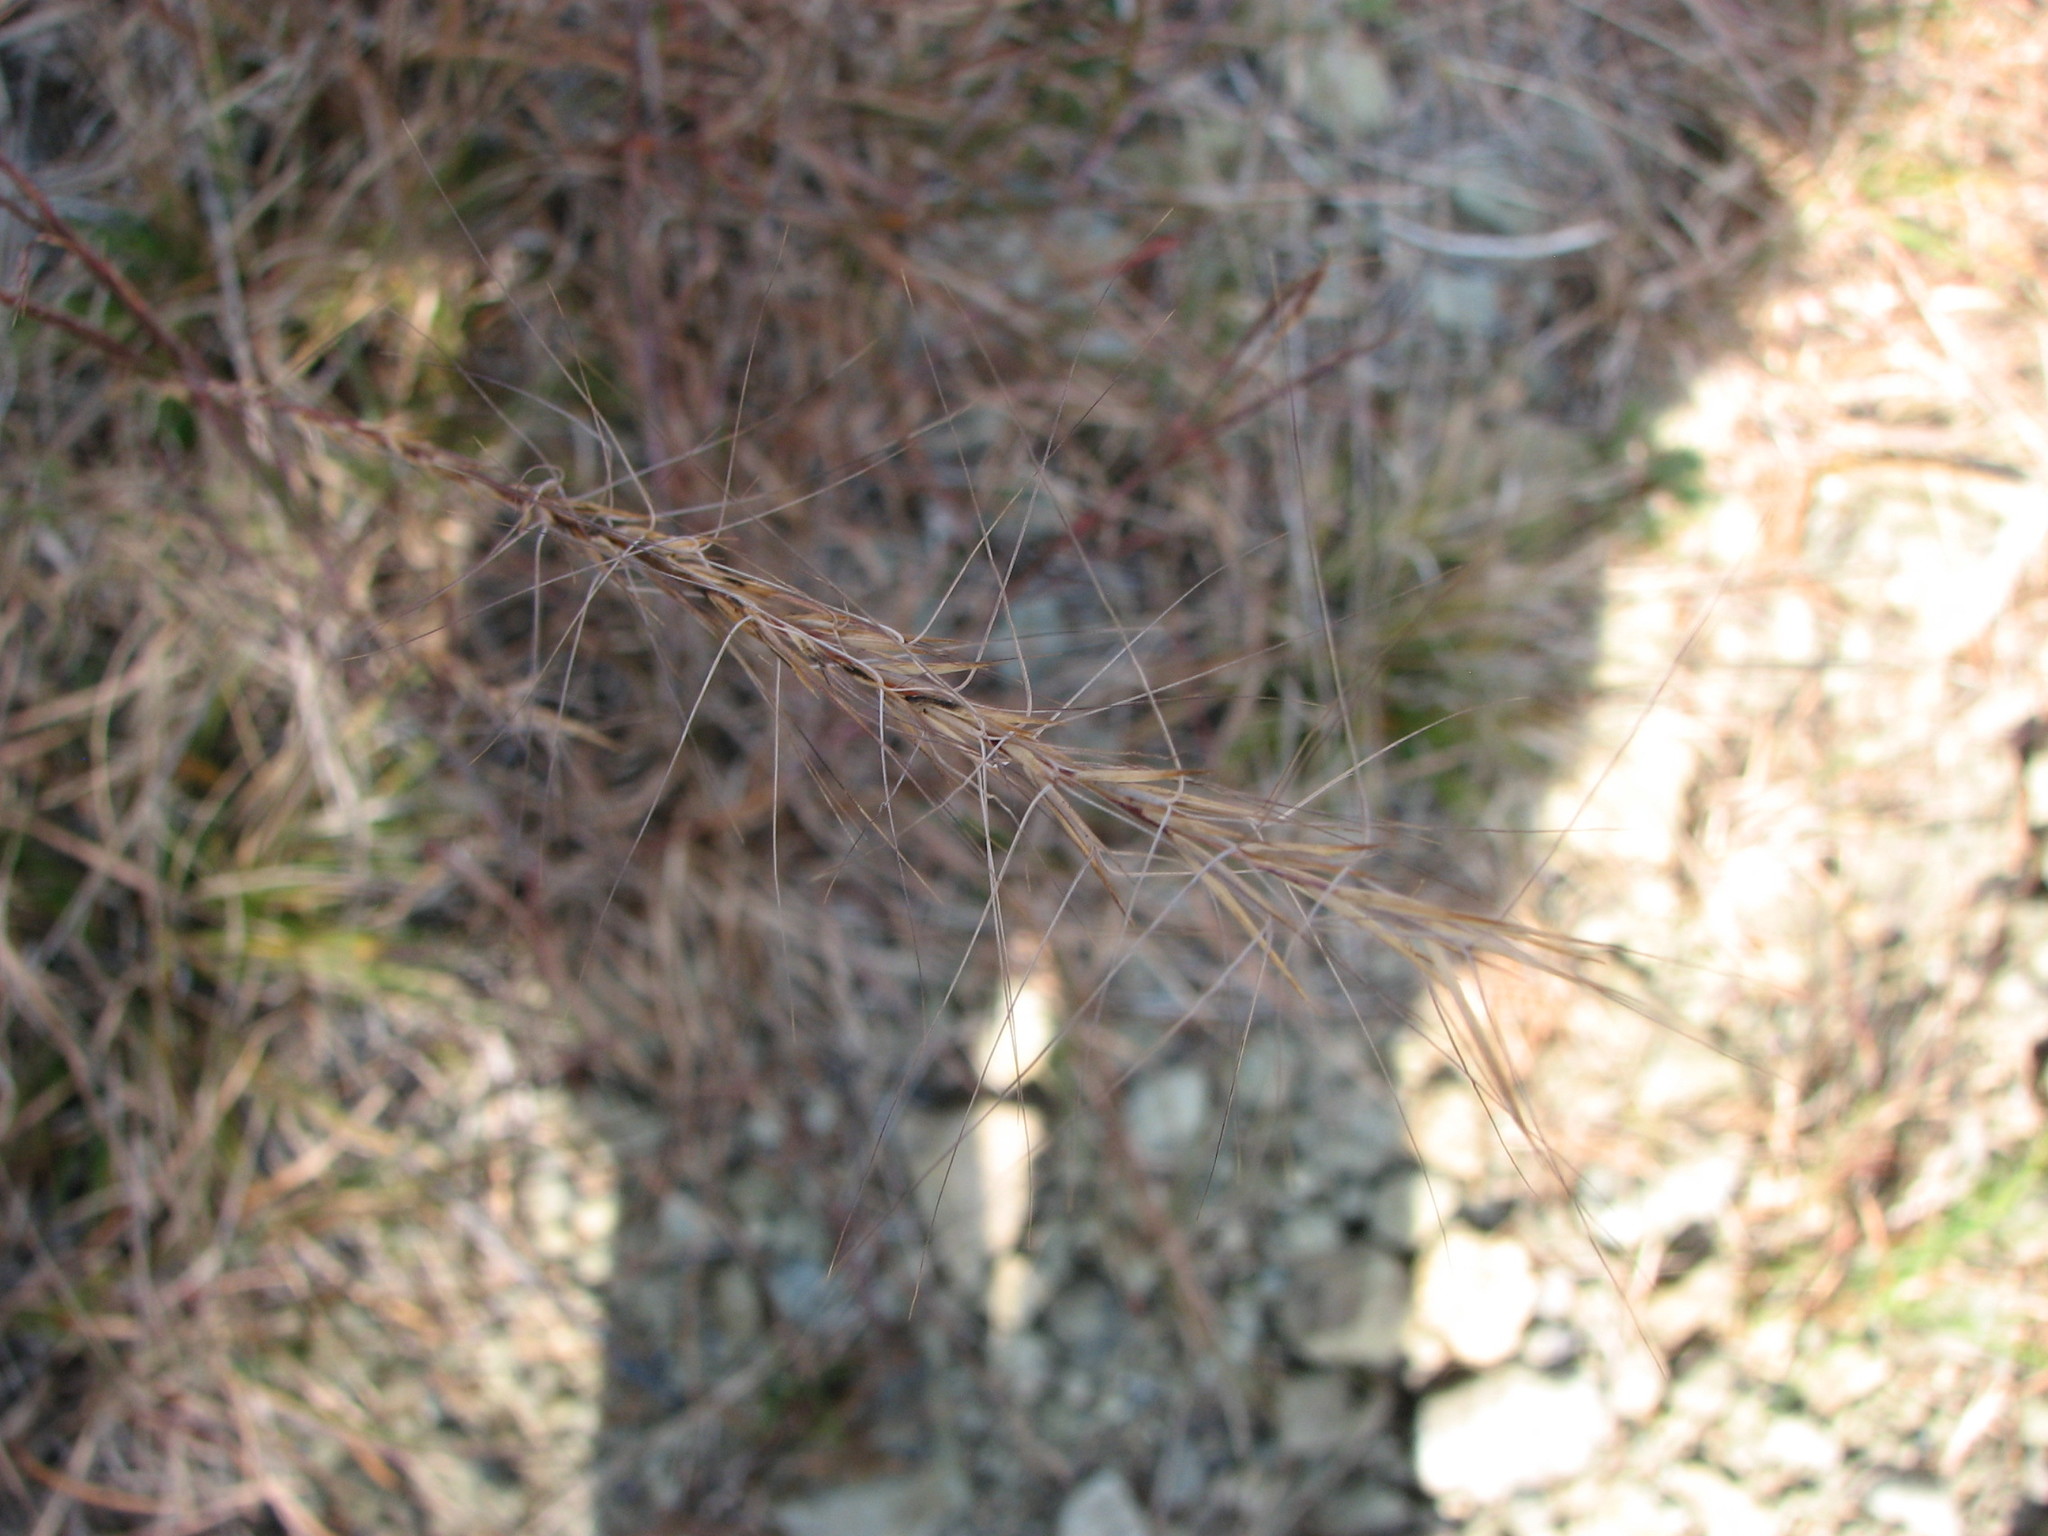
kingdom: Plantae
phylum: Tracheophyta
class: Liliopsida
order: Poales
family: Poaceae
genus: Aristida
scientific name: Aristida purpurascens
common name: Arrow-feather
